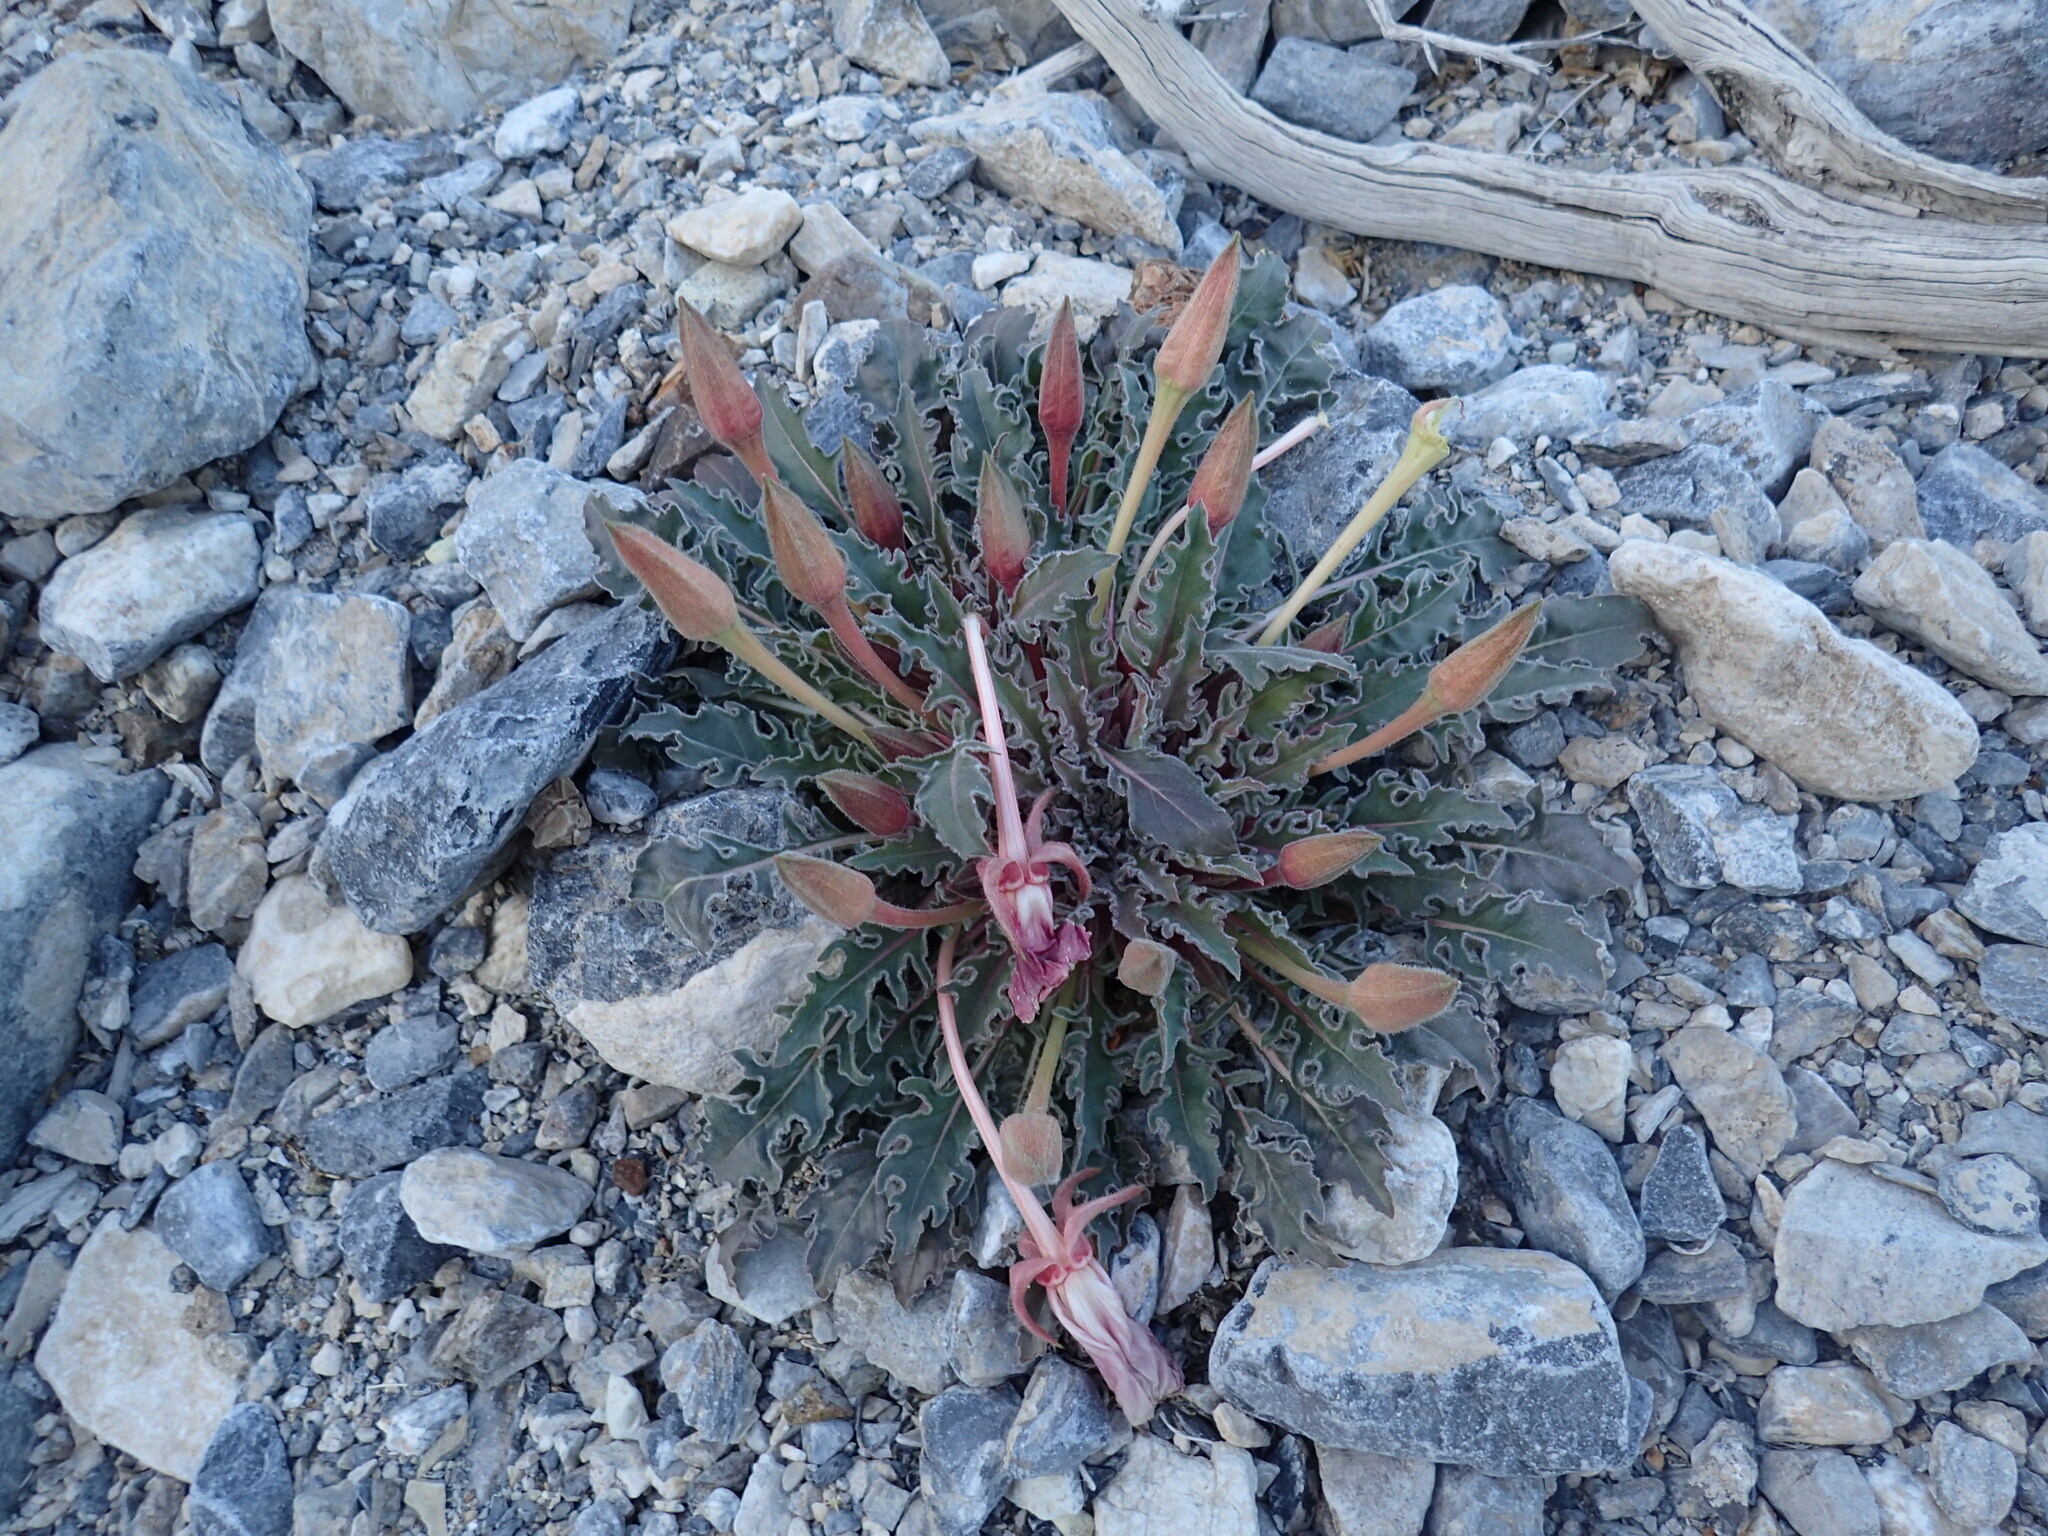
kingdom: Plantae
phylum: Tracheophyta
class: Magnoliopsida
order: Myrtales
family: Onagraceae
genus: Oenothera
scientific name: Oenothera cespitosa
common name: Tufted evening-primrose
